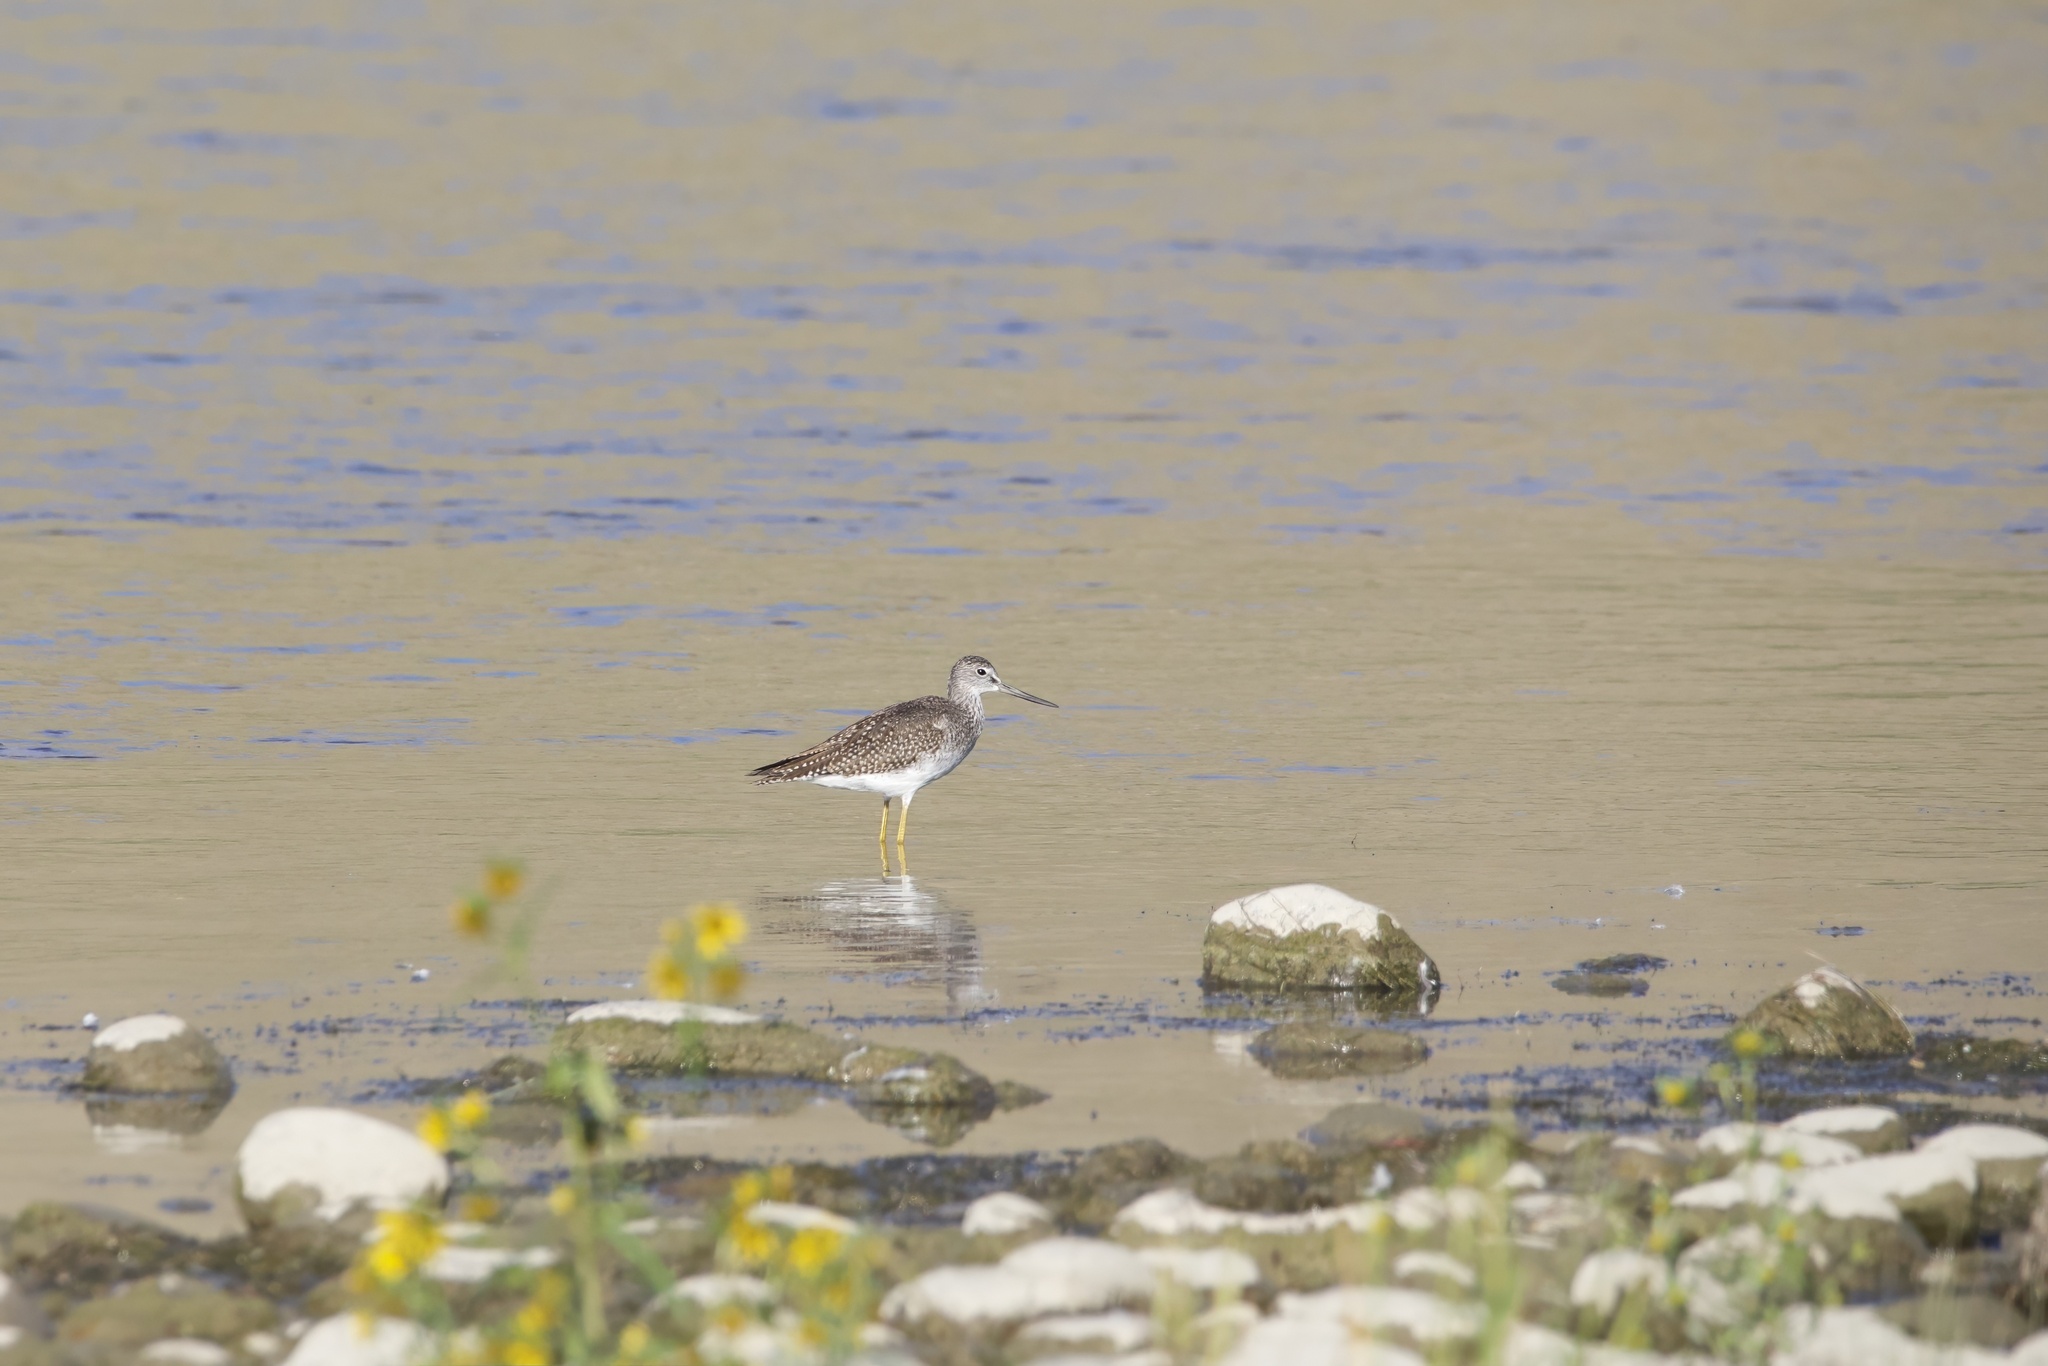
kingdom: Animalia
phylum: Chordata
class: Aves
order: Charadriiformes
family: Scolopacidae
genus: Tringa
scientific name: Tringa melanoleuca
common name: Greater yellowlegs
